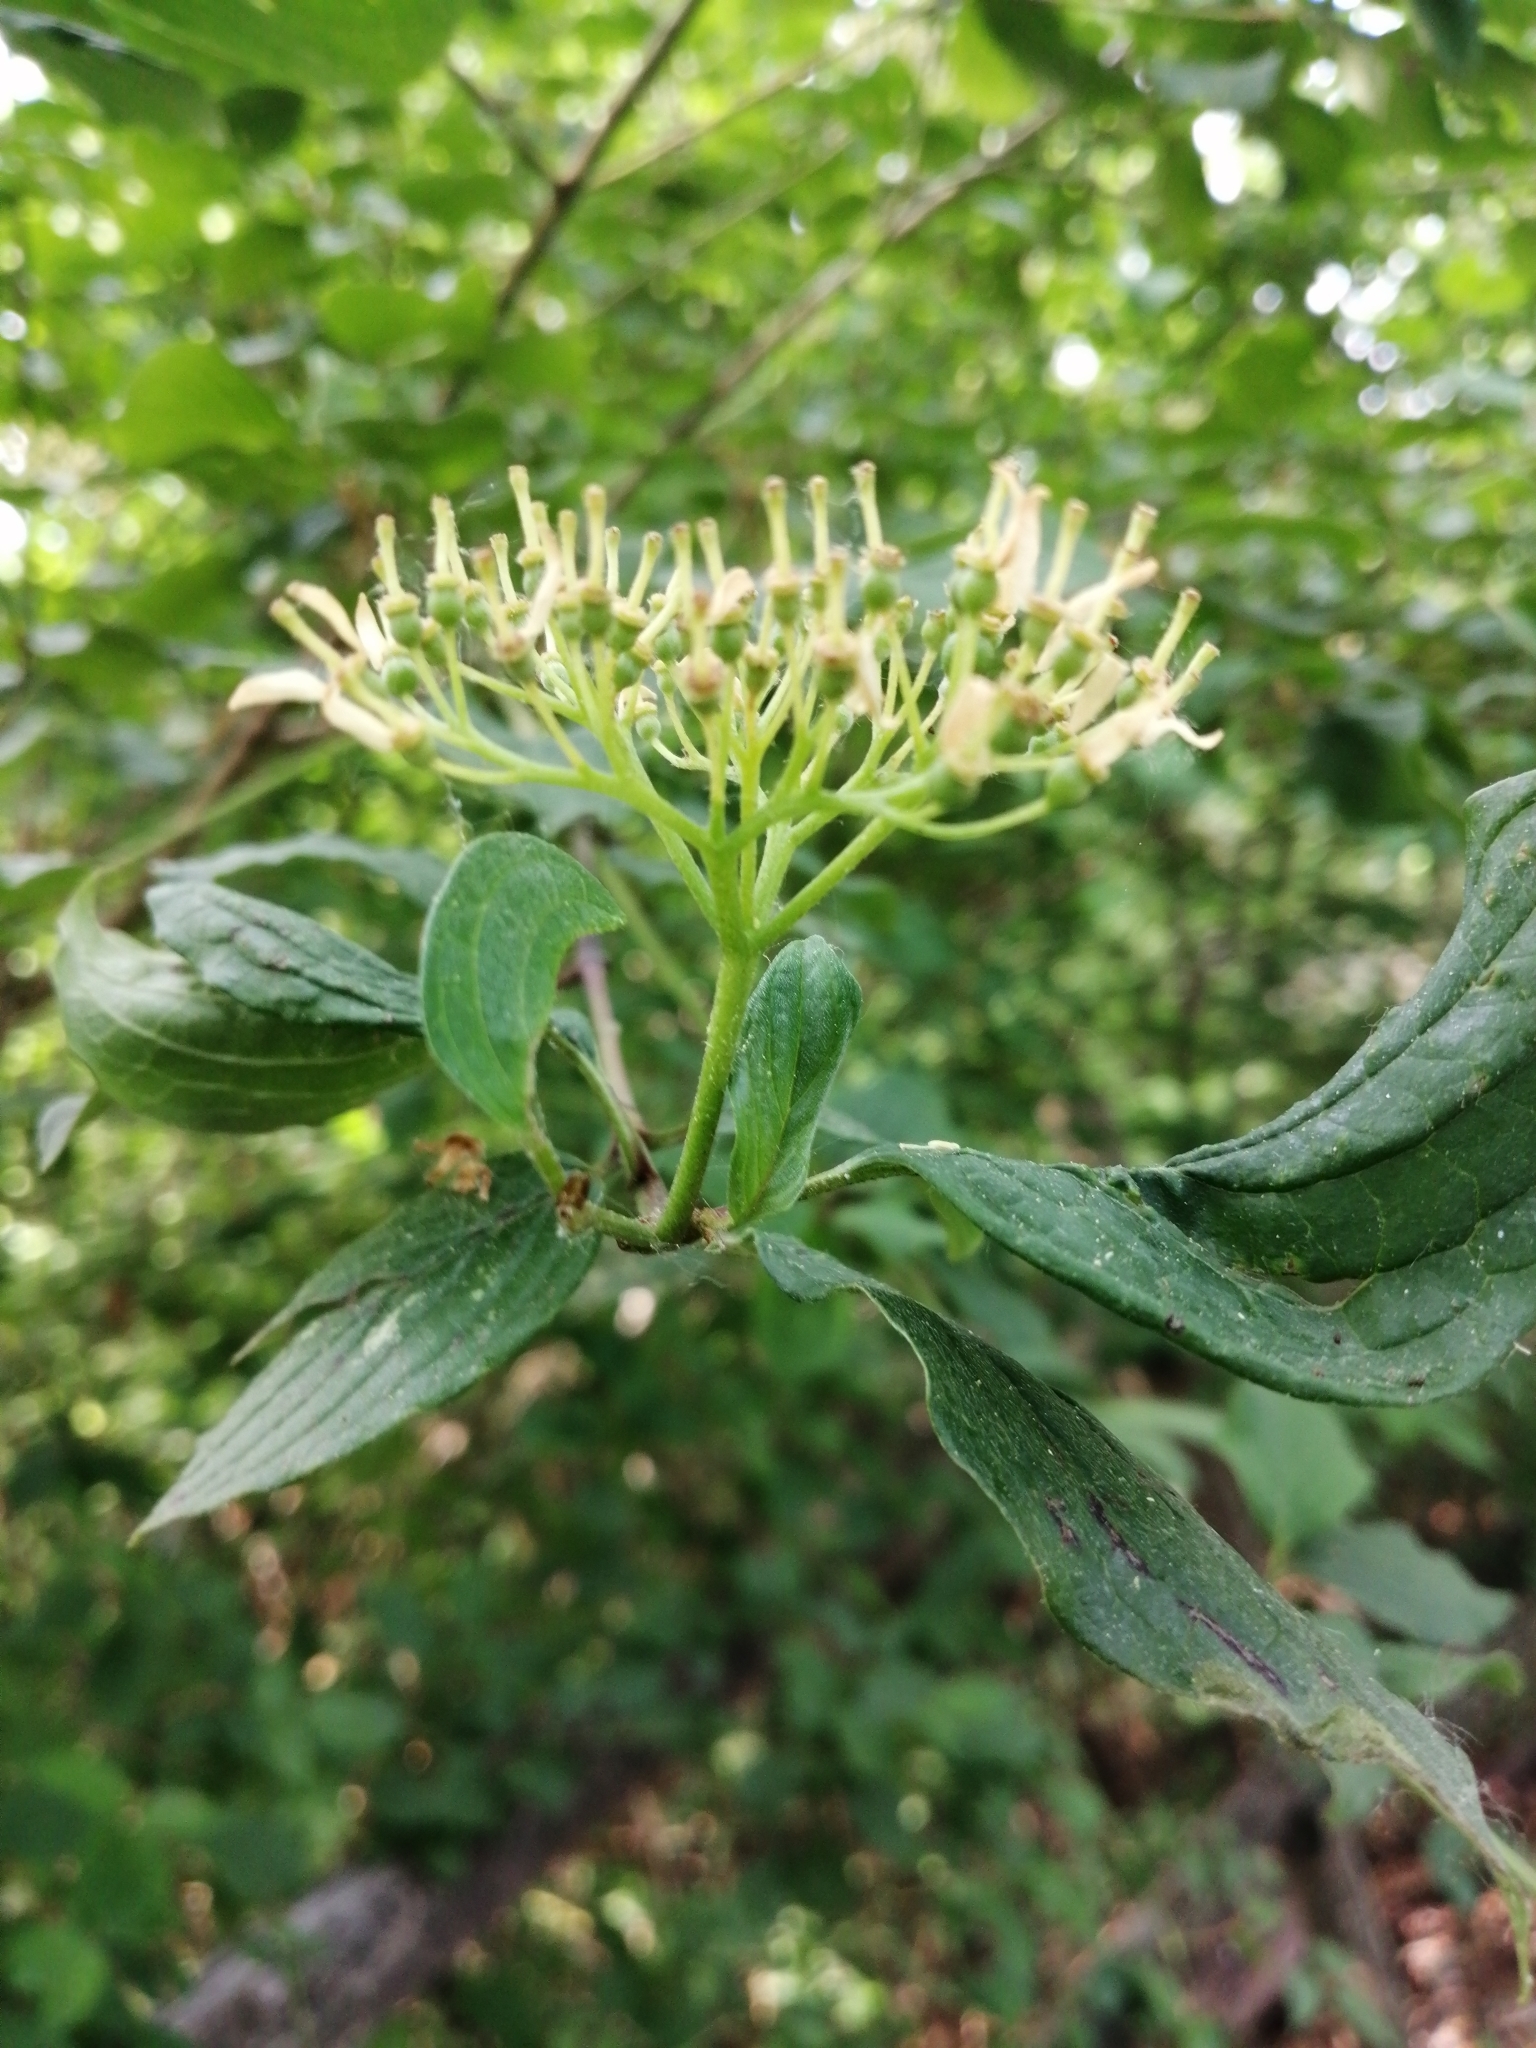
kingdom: Plantae
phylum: Tracheophyta
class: Magnoliopsida
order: Cornales
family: Cornaceae
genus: Cornus
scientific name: Cornus sanguinea
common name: Dogwood
